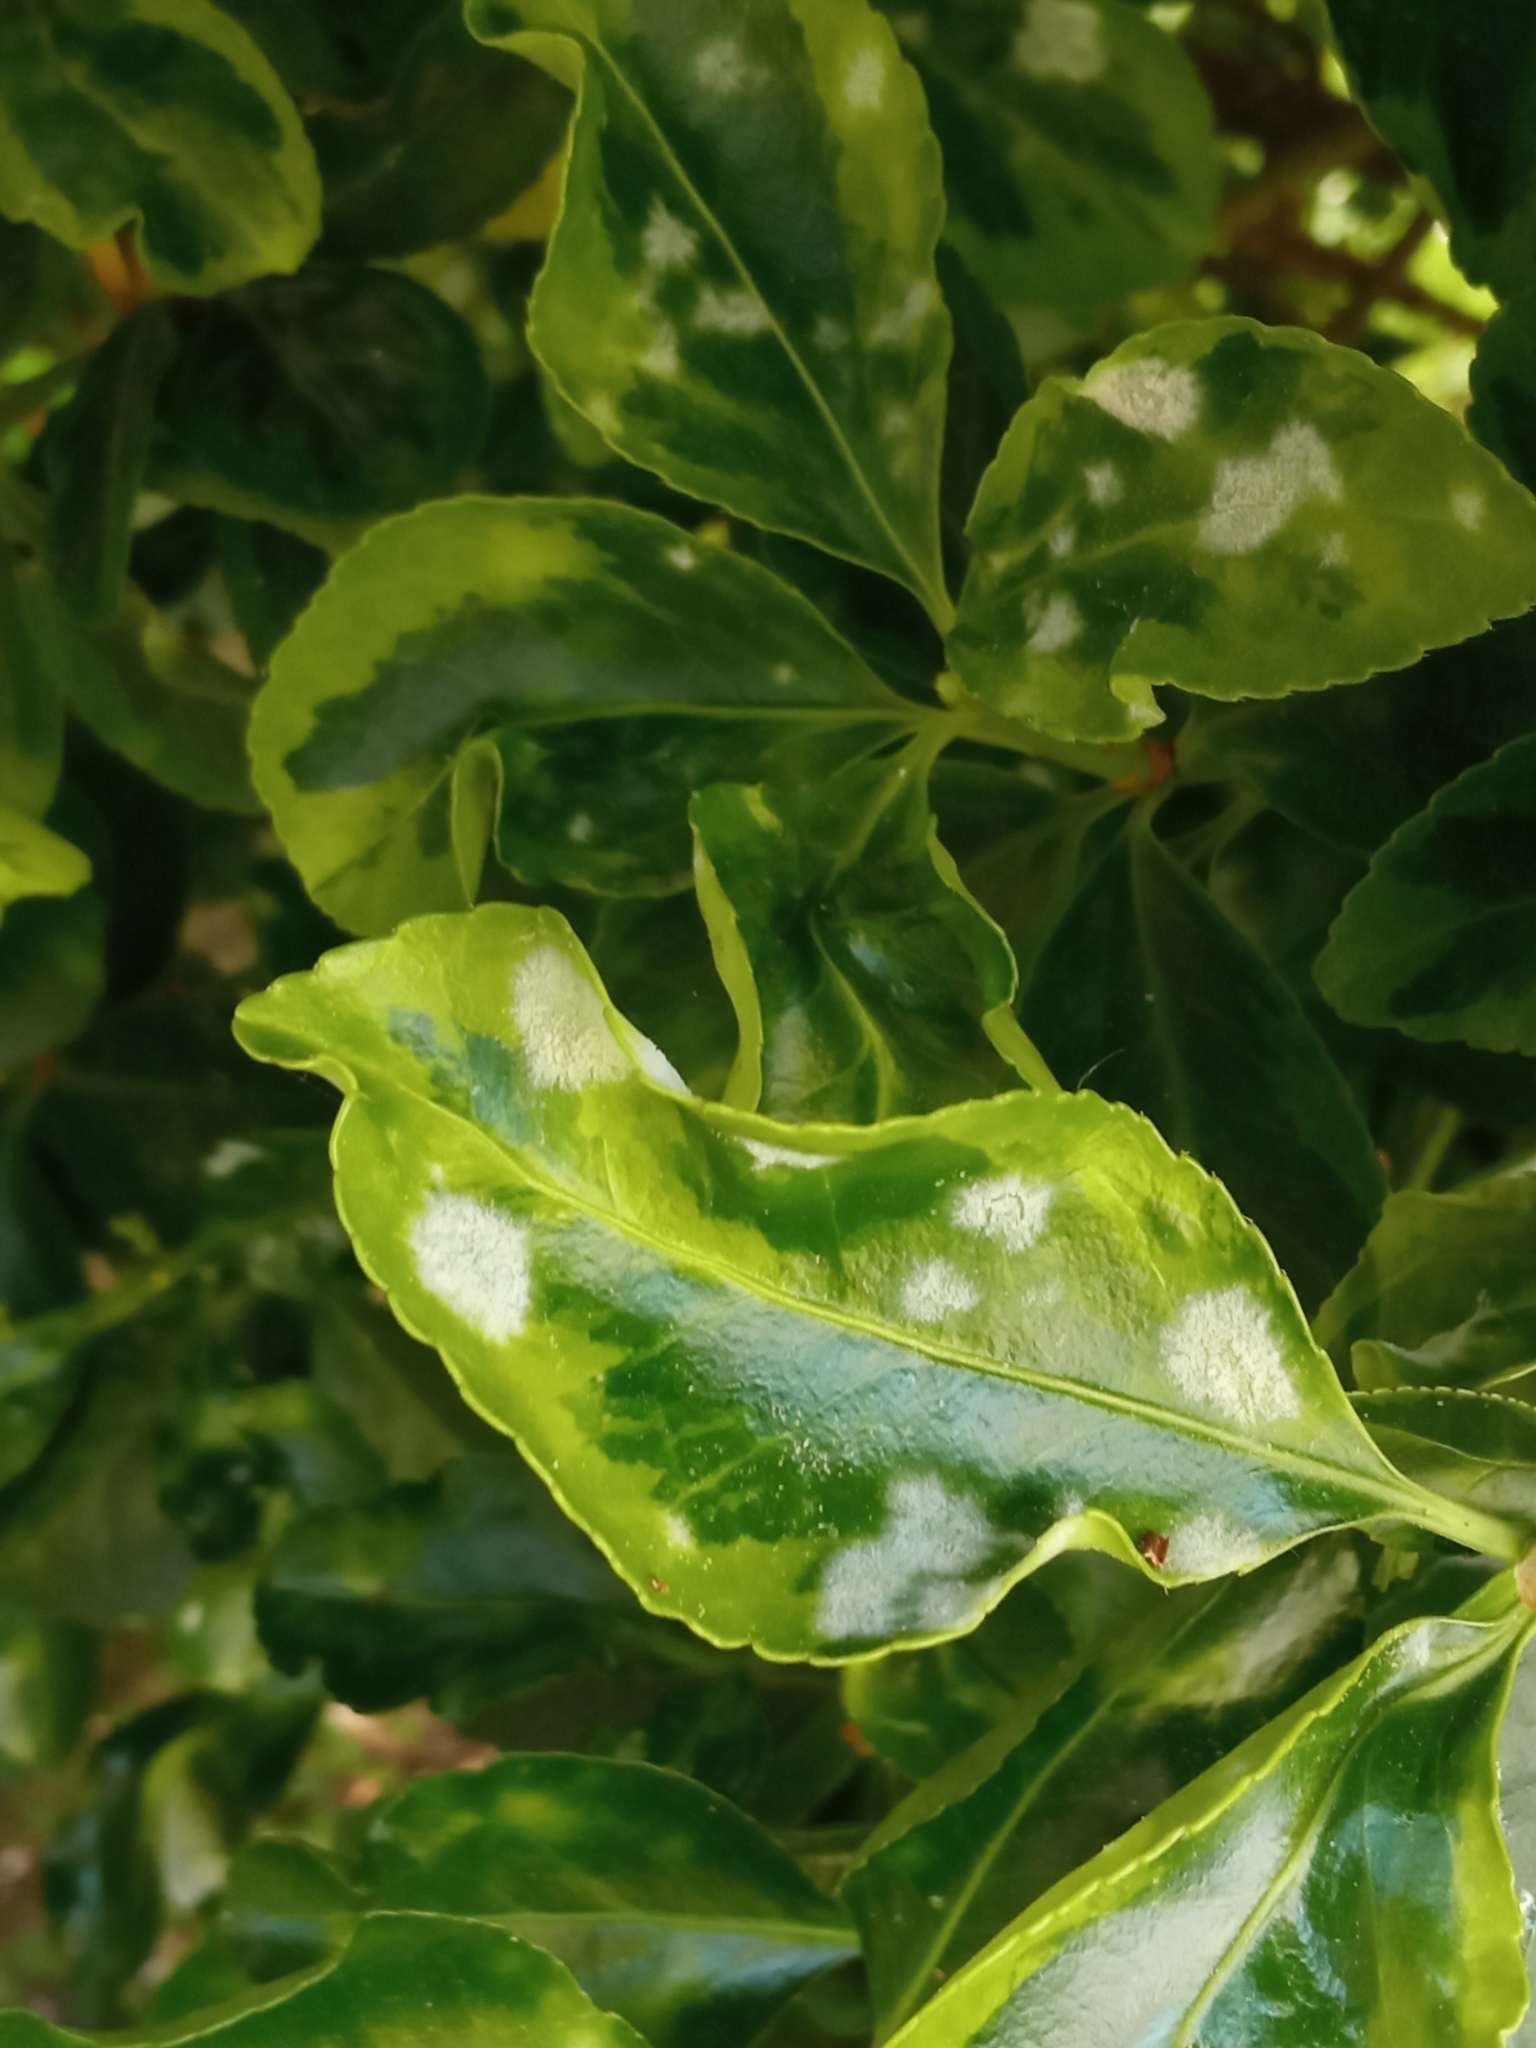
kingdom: Fungi
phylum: Ascomycota
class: Leotiomycetes
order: Helotiales
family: Erysiphaceae
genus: Erysiphe
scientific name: Erysiphe euonymicola
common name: Spindletree mildew
